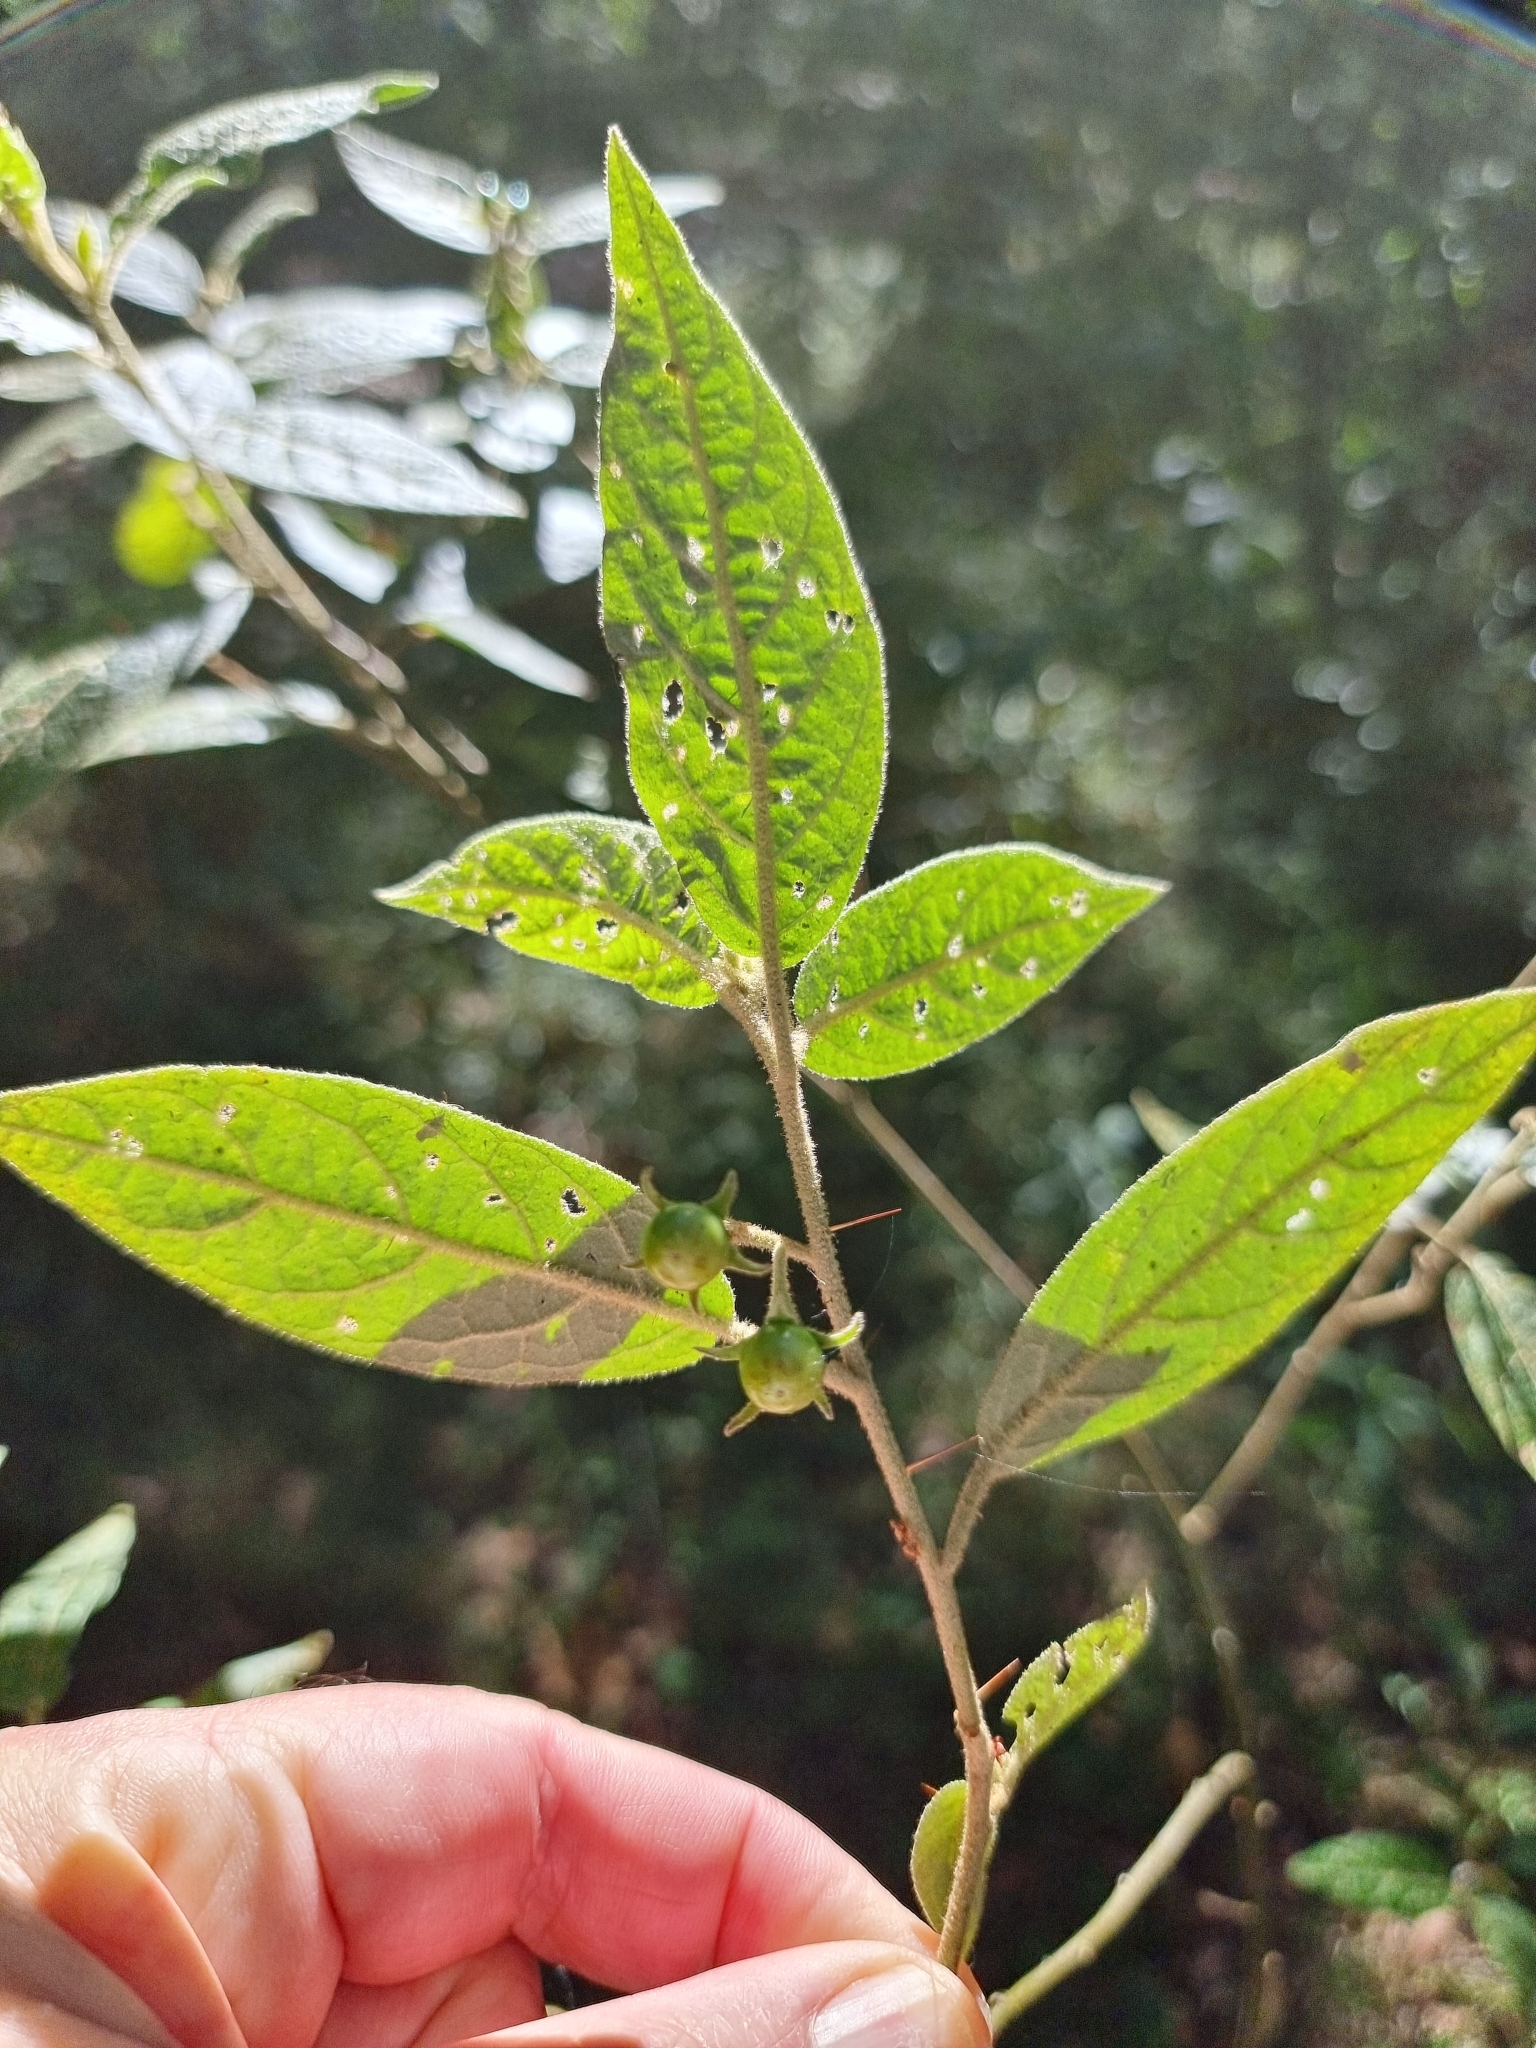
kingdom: Plantae
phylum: Tracheophyta
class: Magnoliopsida
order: Solanales
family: Solanaceae
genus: Solanum
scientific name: Solanum stelligerum
